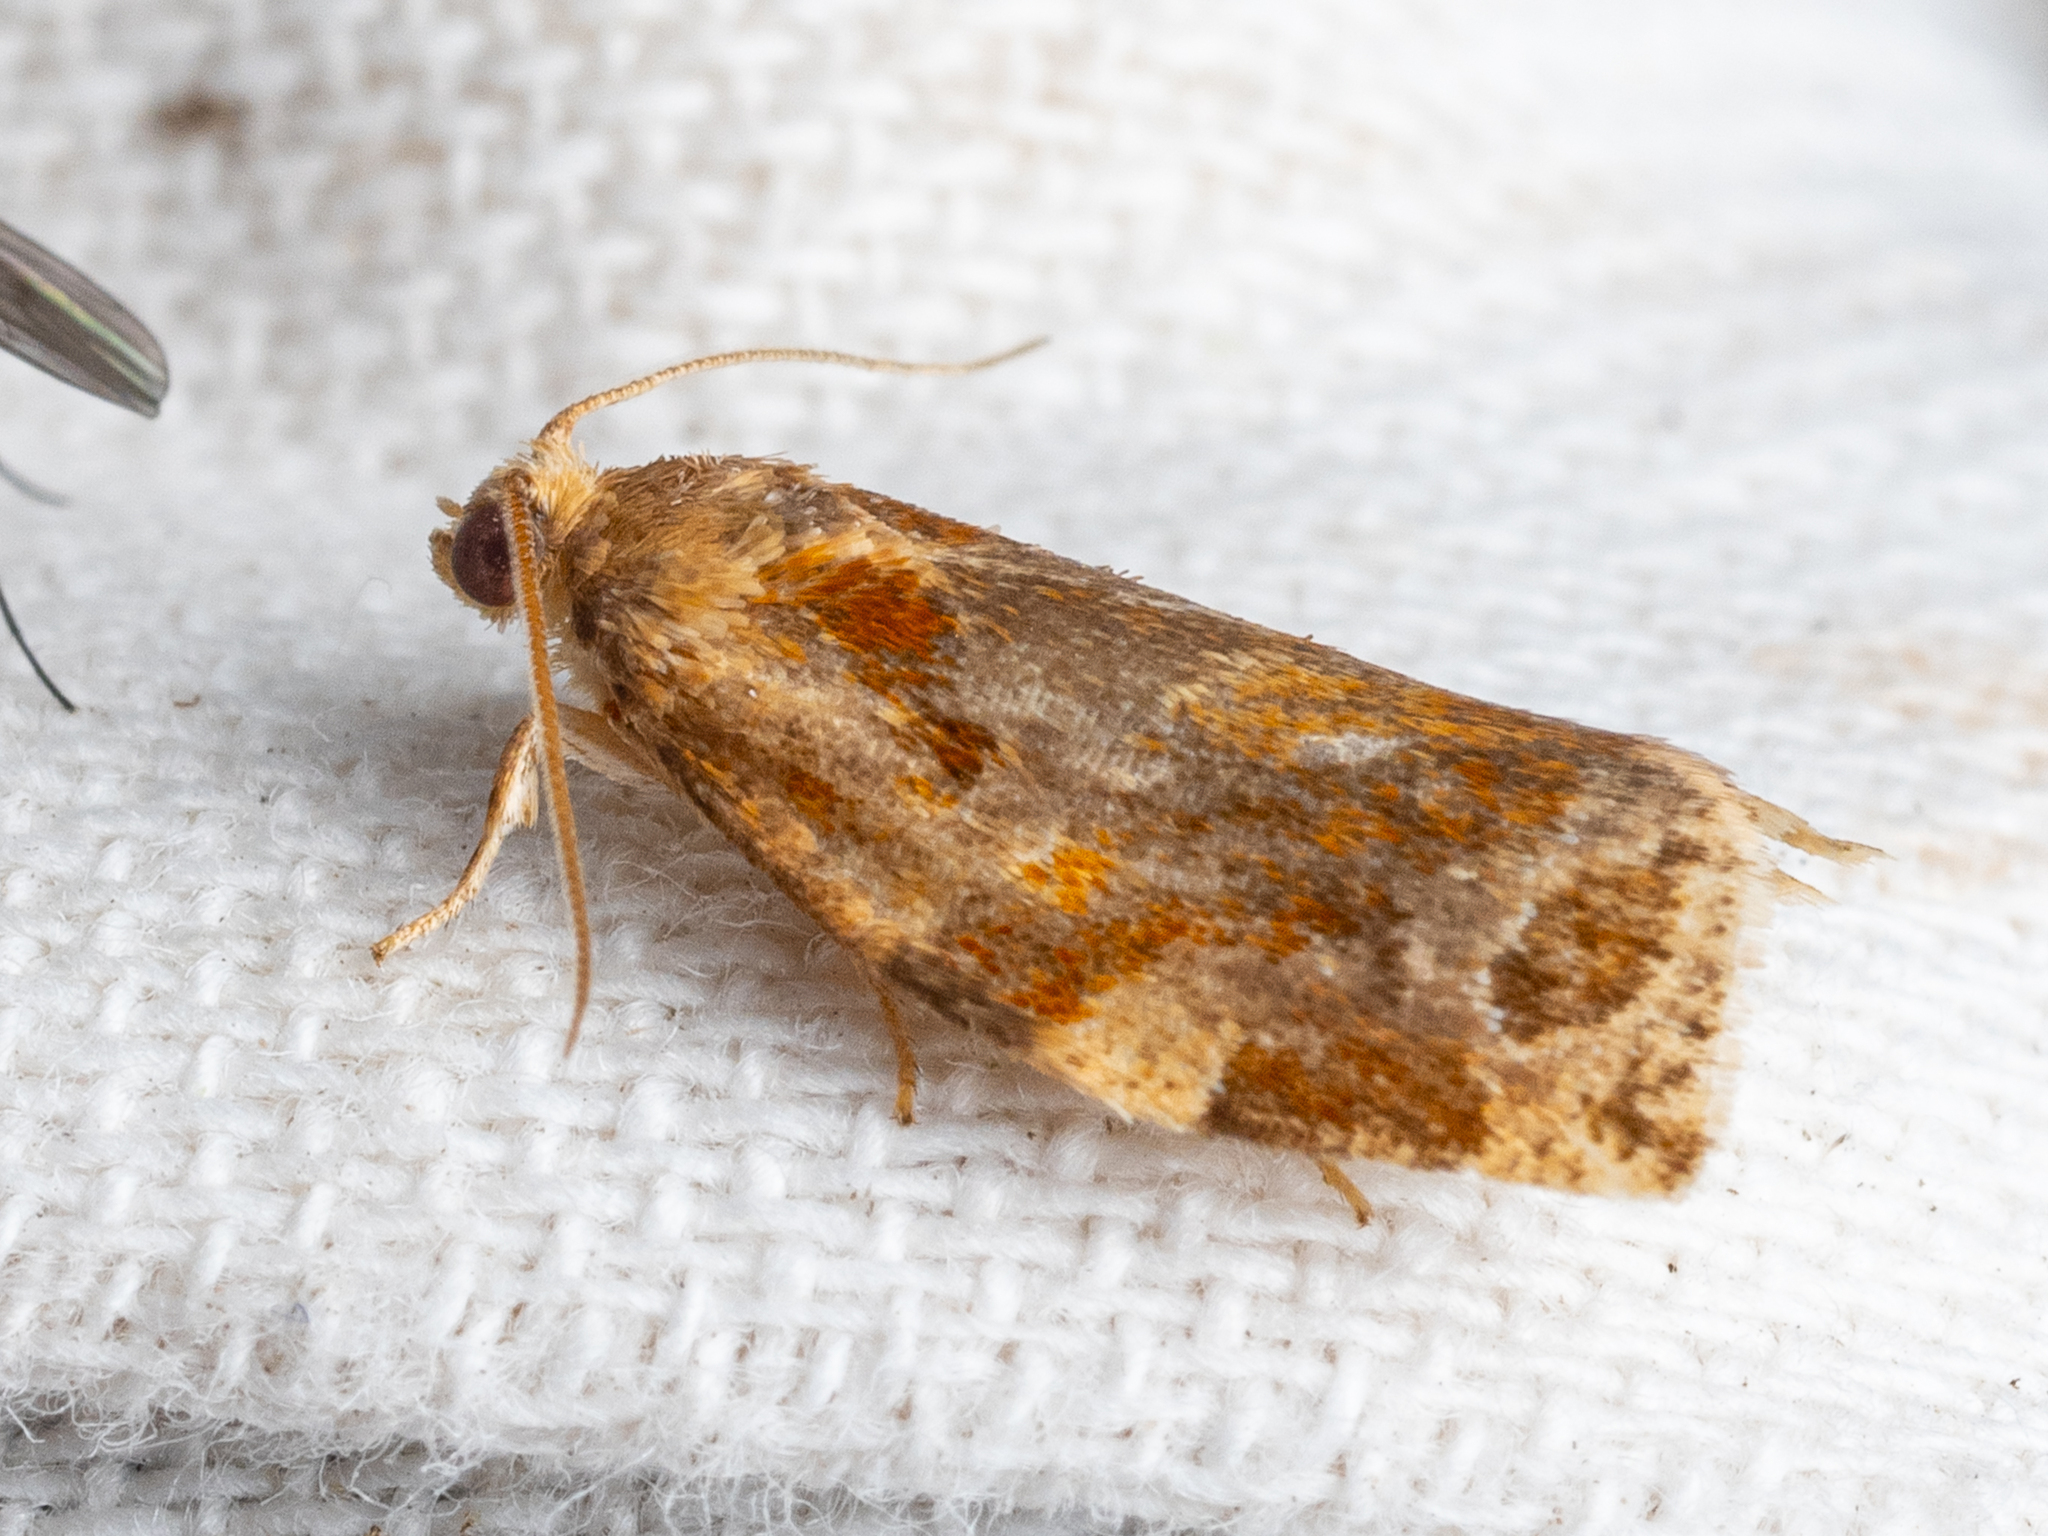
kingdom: Animalia
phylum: Arthropoda
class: Insecta
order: Lepidoptera
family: Tortricidae
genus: Archips
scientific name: Archips xylosteana
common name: Variegated golden tortrix
